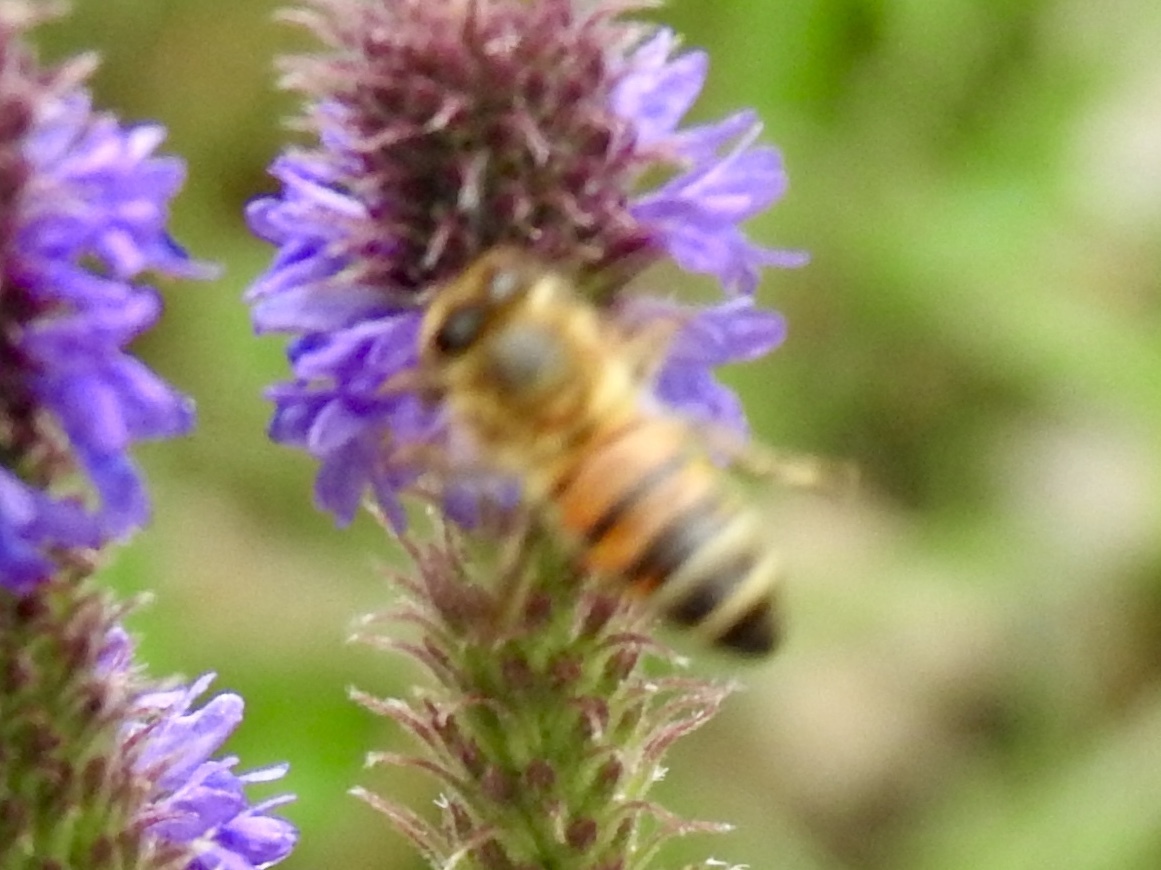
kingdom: Animalia
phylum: Arthropoda
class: Insecta
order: Hymenoptera
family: Apidae
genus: Apis
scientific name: Apis mellifera
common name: Honey bee
